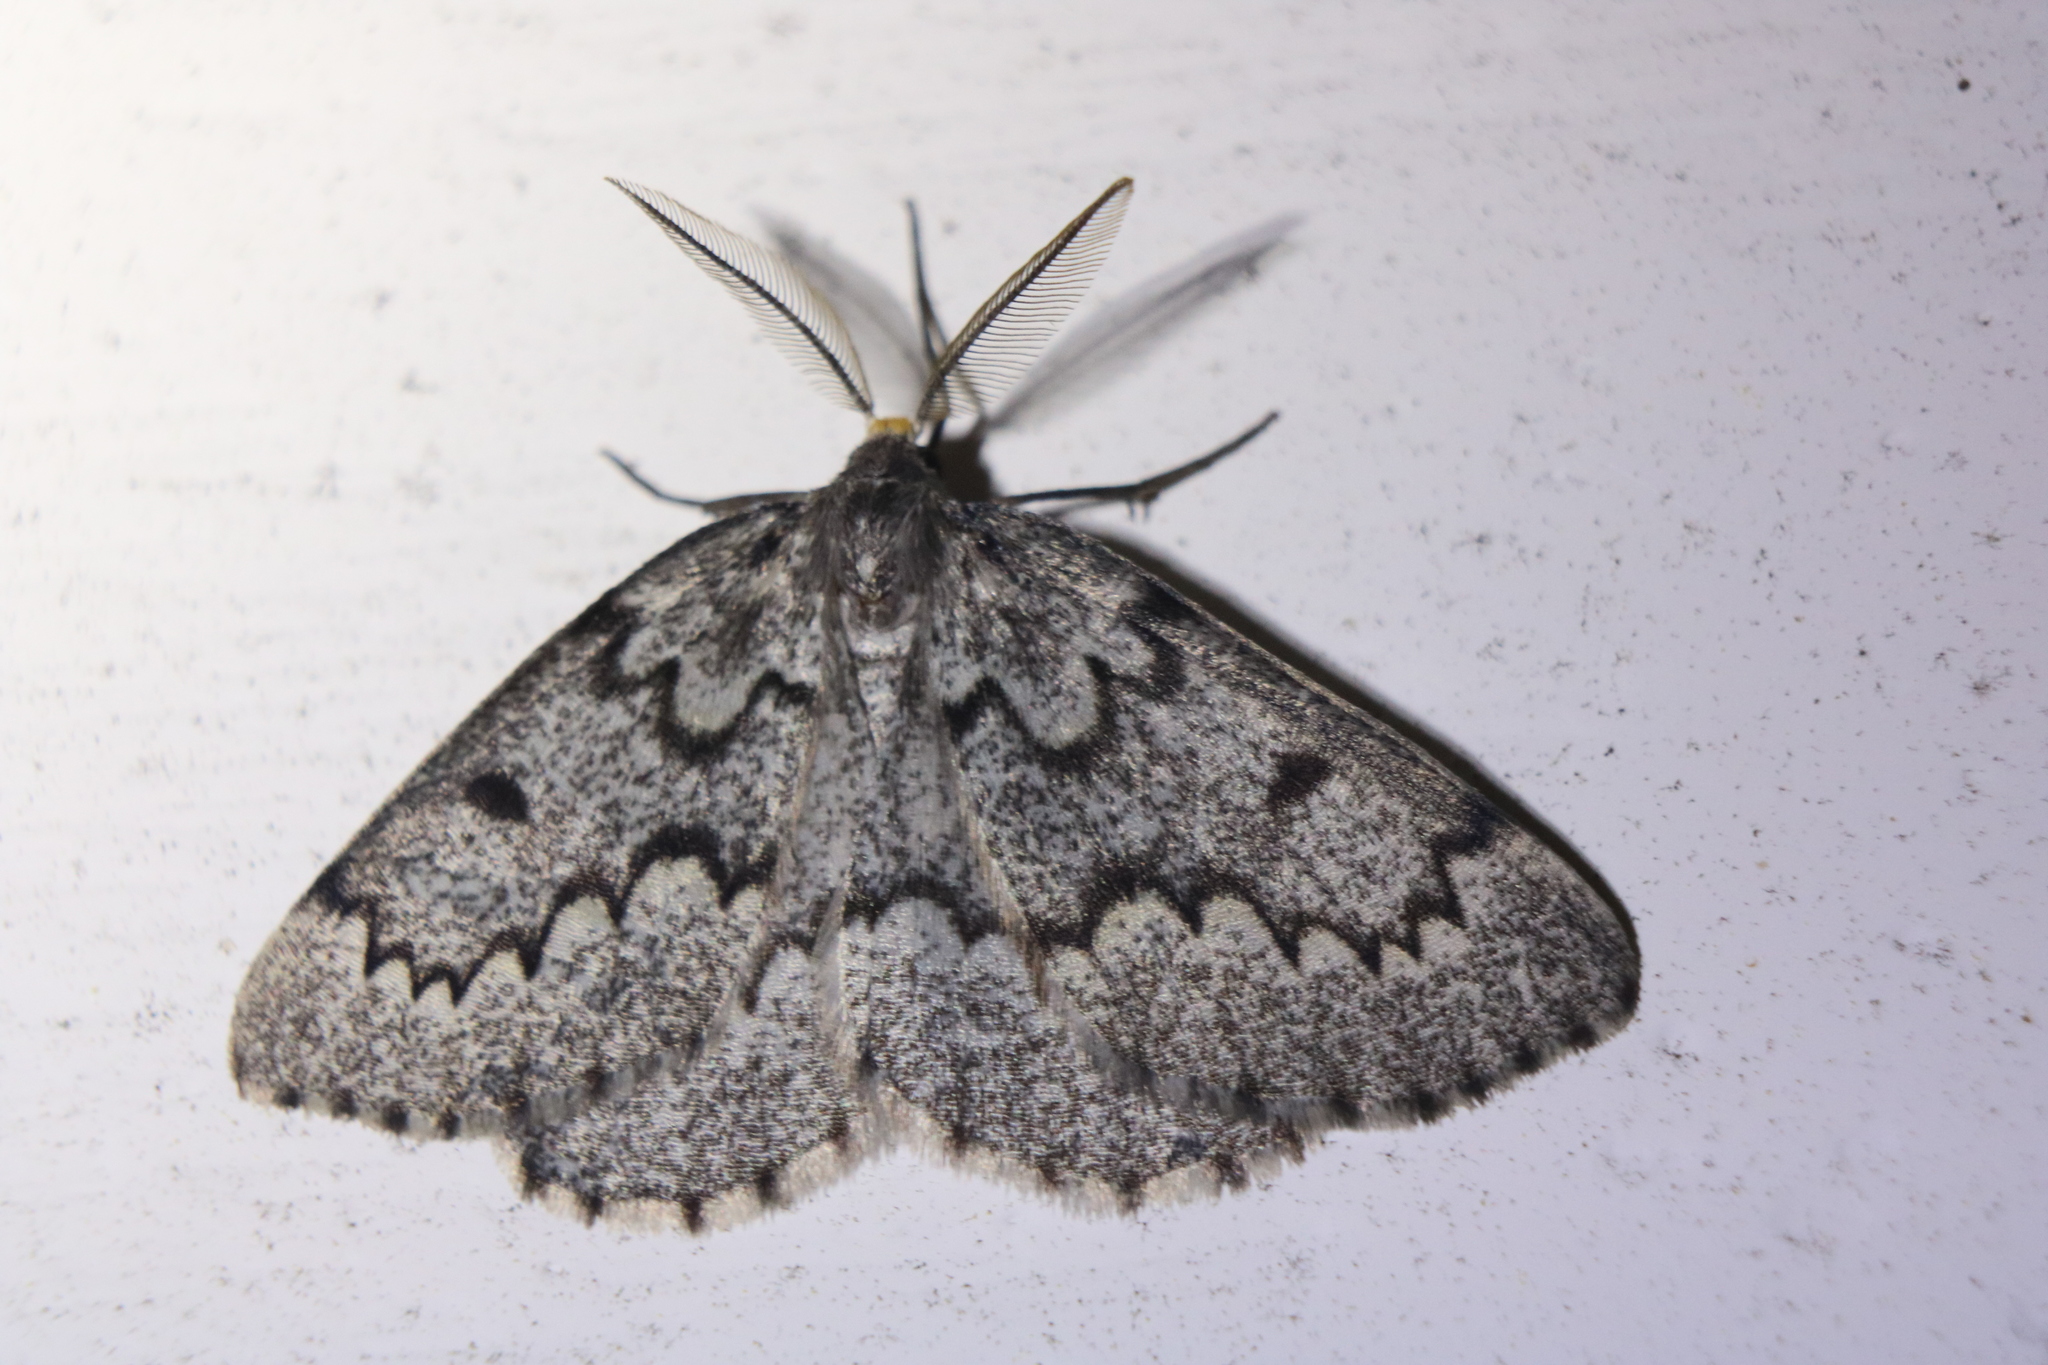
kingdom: Animalia
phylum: Arthropoda
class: Insecta
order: Lepidoptera
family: Geometridae
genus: Nepytia
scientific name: Nepytia canosaria
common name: False hemlock looper
